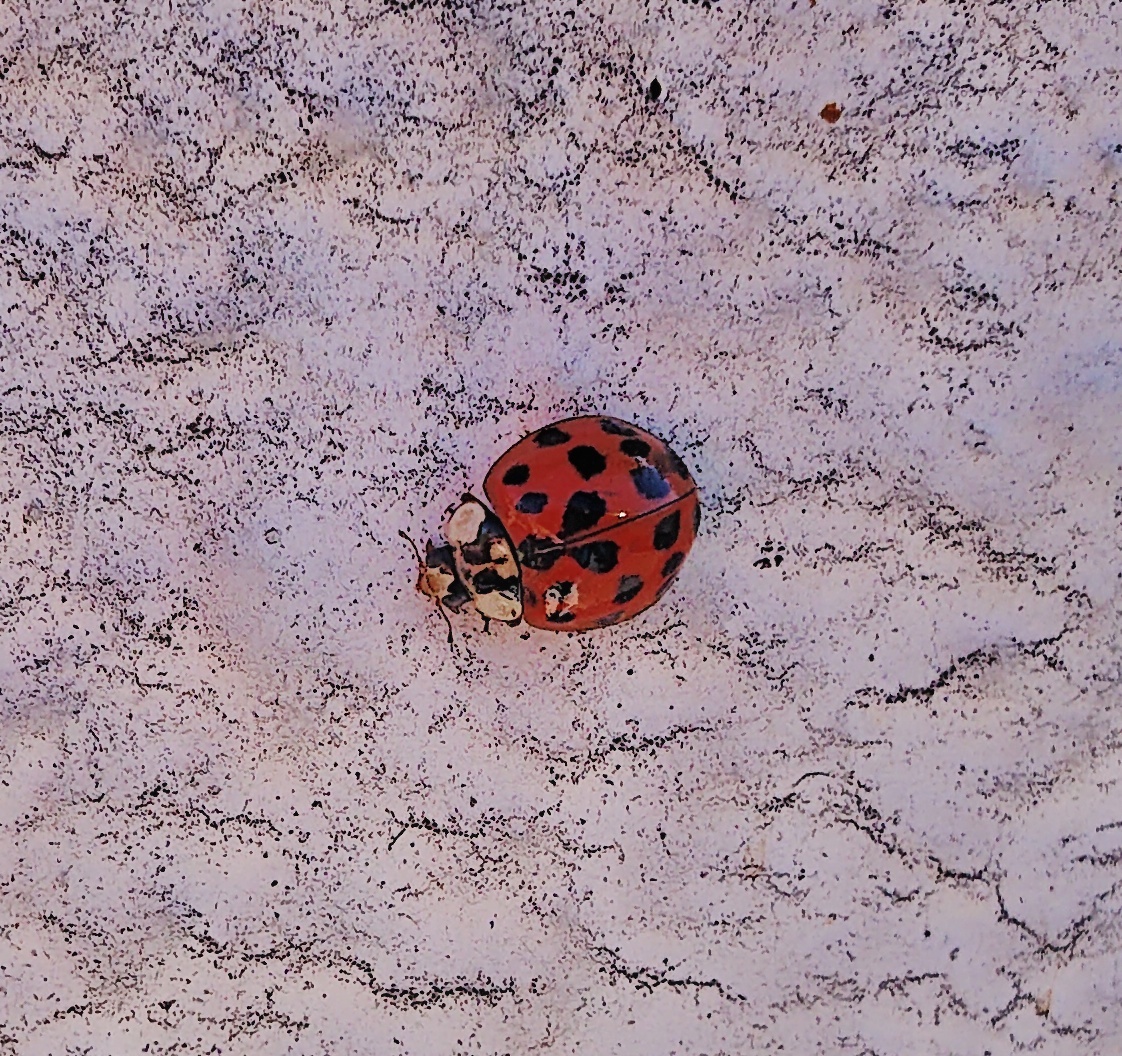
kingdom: Animalia
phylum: Arthropoda
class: Insecta
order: Coleoptera
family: Coccinellidae
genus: Harmonia
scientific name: Harmonia axyridis
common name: Harlequin ladybird
